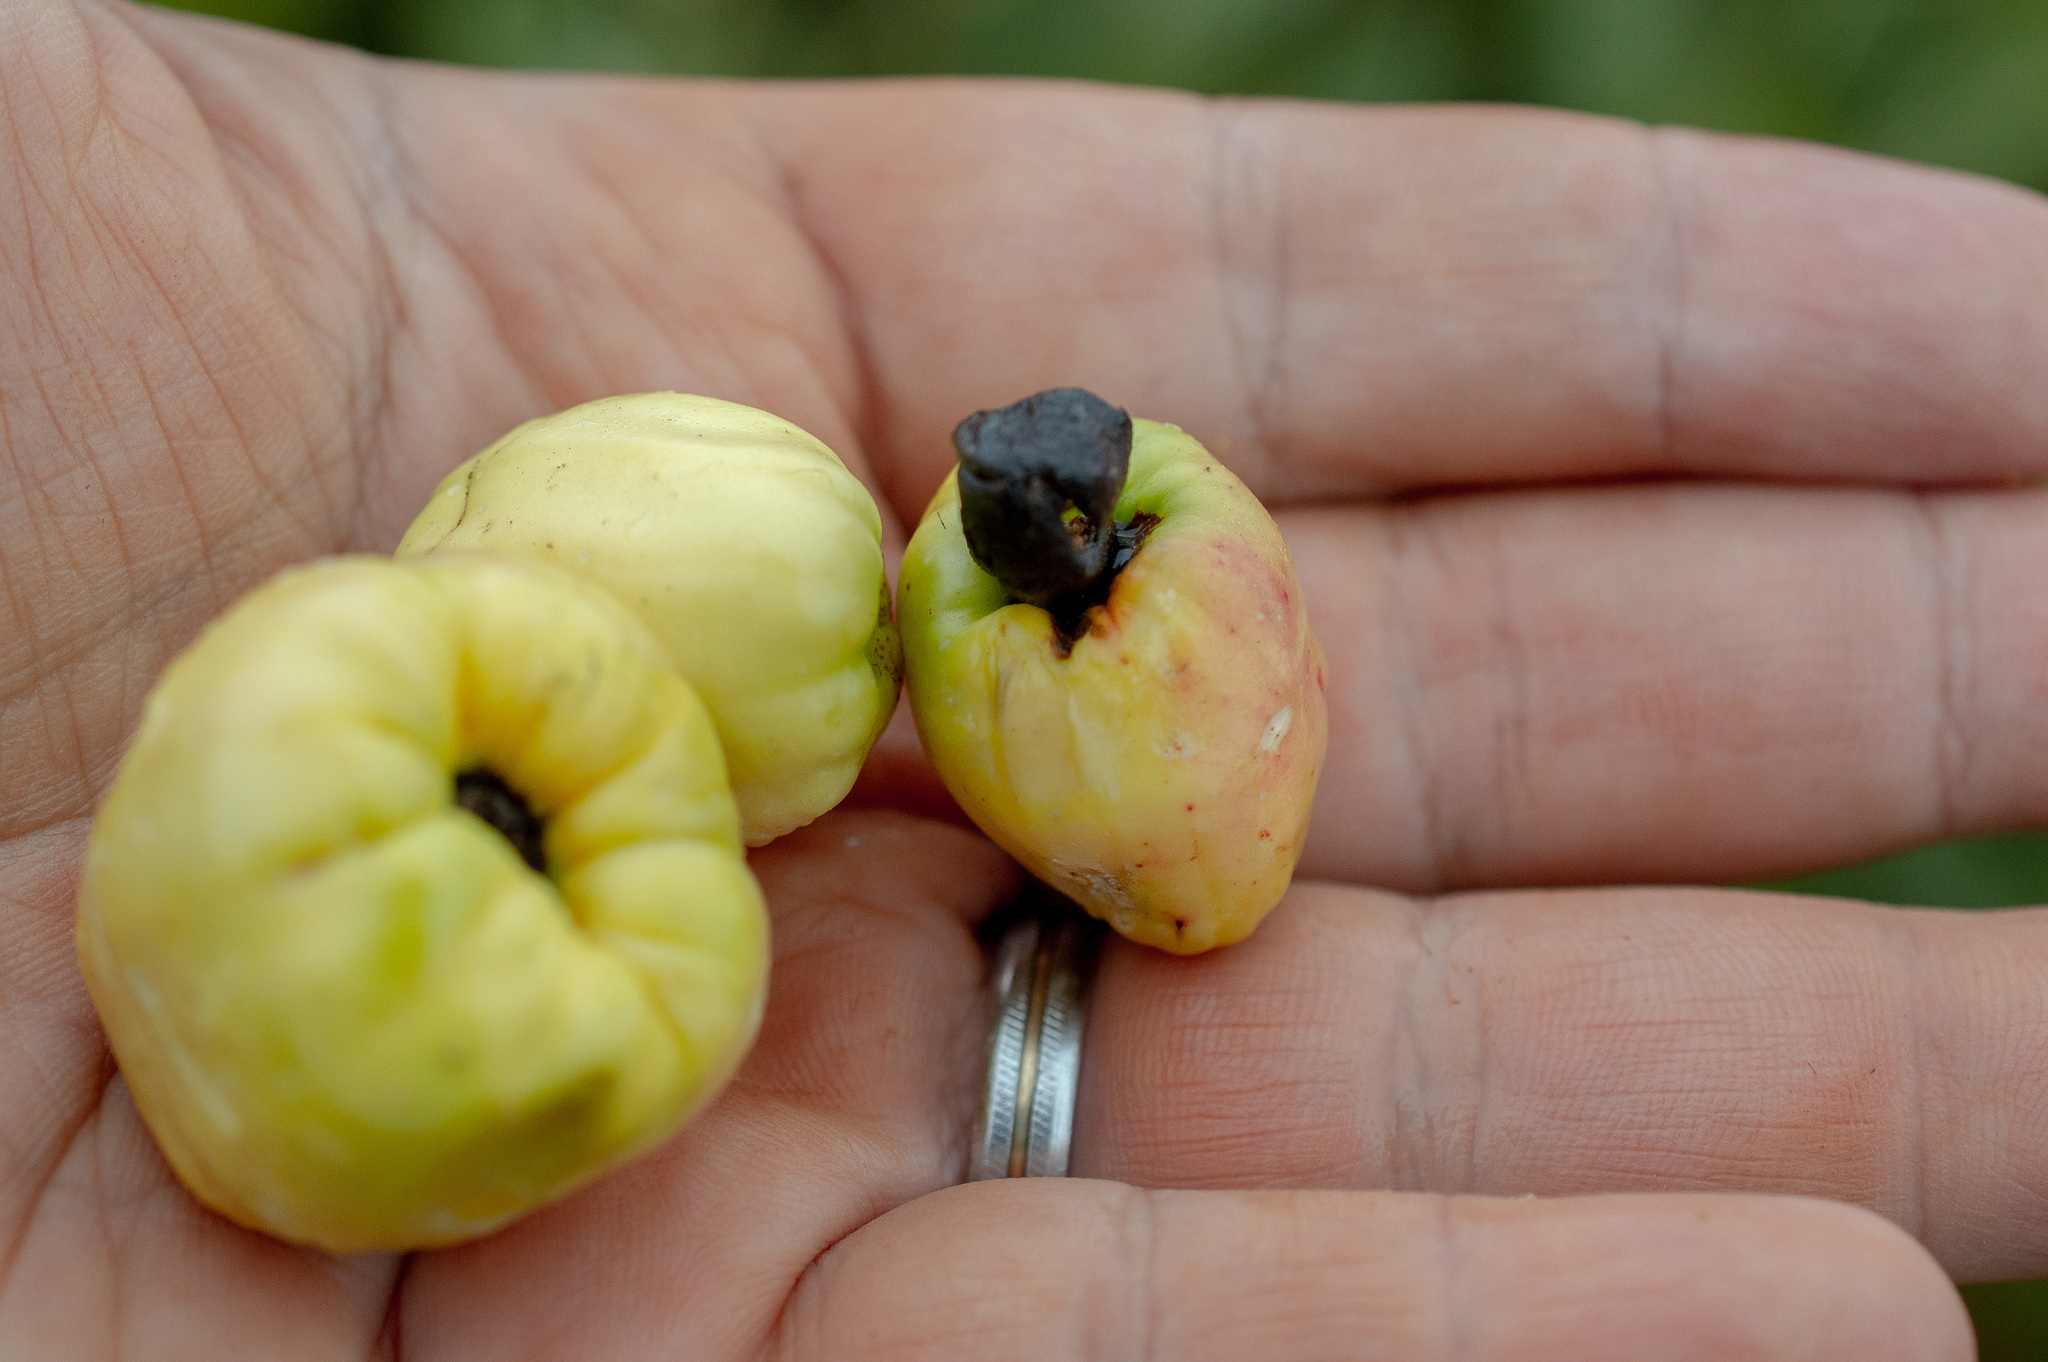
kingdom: Plantae
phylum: Tracheophyta
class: Magnoliopsida
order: Sapindales
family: Anacardiaceae
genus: Anacardium
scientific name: Anacardium humile
